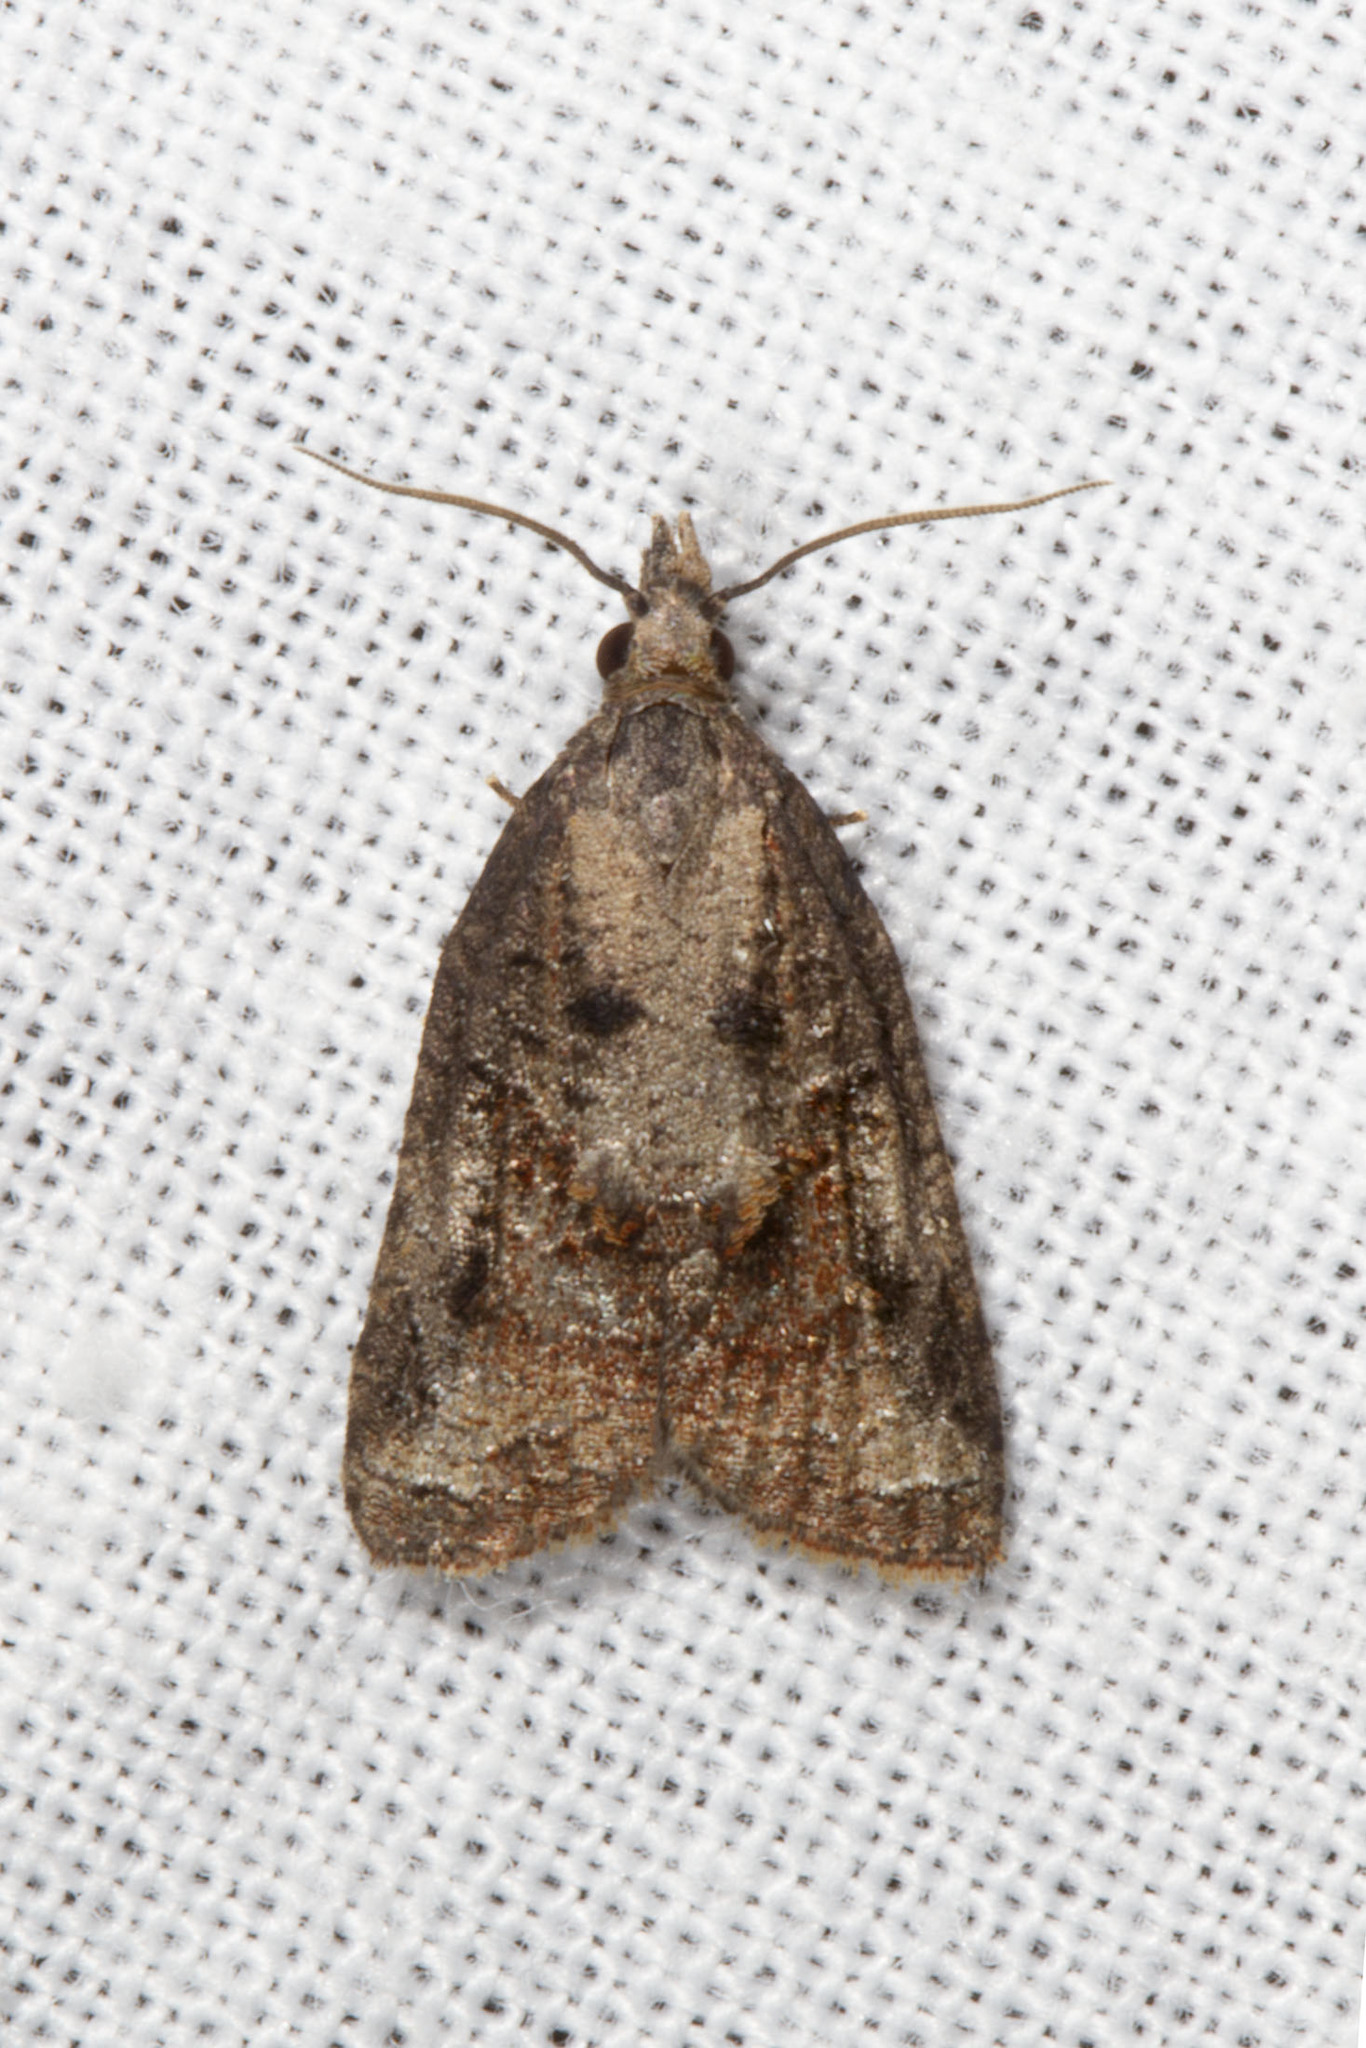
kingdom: Animalia
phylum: Arthropoda
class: Insecta
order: Lepidoptera
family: Tortricidae
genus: Platynota
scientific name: Platynota idaeusalis
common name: Tufted apple bud moth
